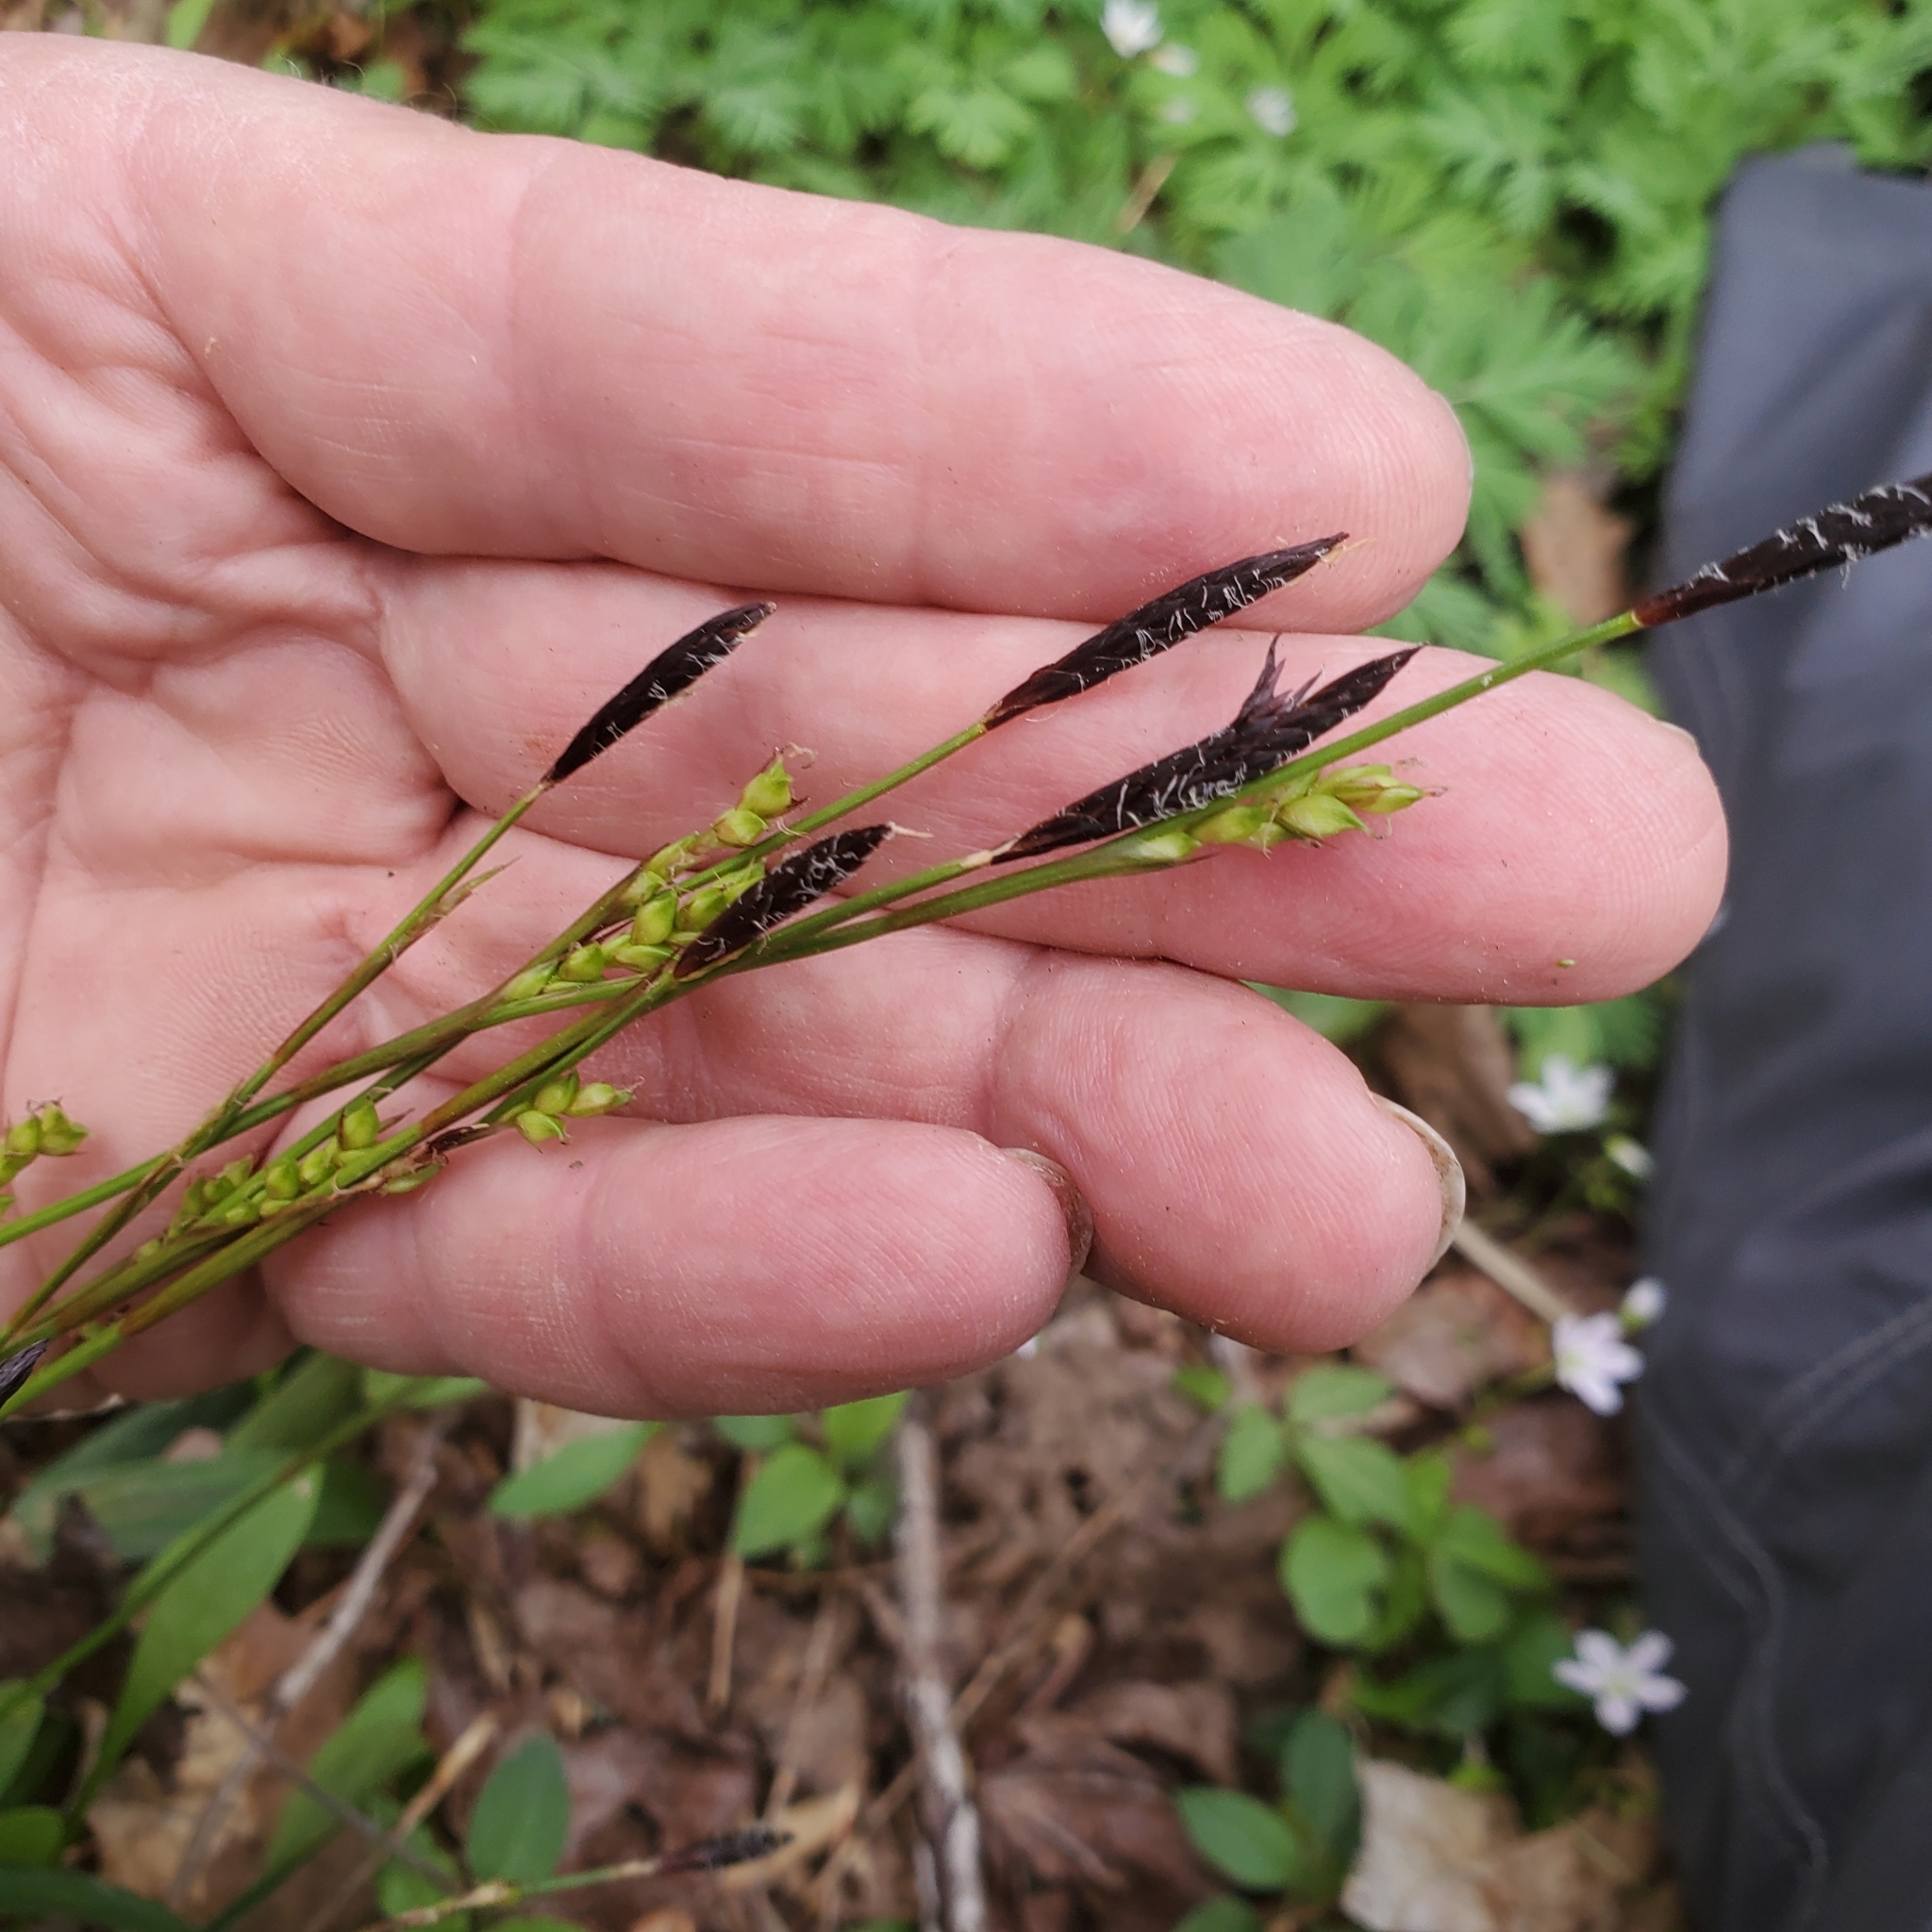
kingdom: Plantae
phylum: Tracheophyta
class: Liliopsida
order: Poales
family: Cyperaceae
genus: Carex
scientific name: Carex plantaginea
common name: Plantain-leaved sedge
